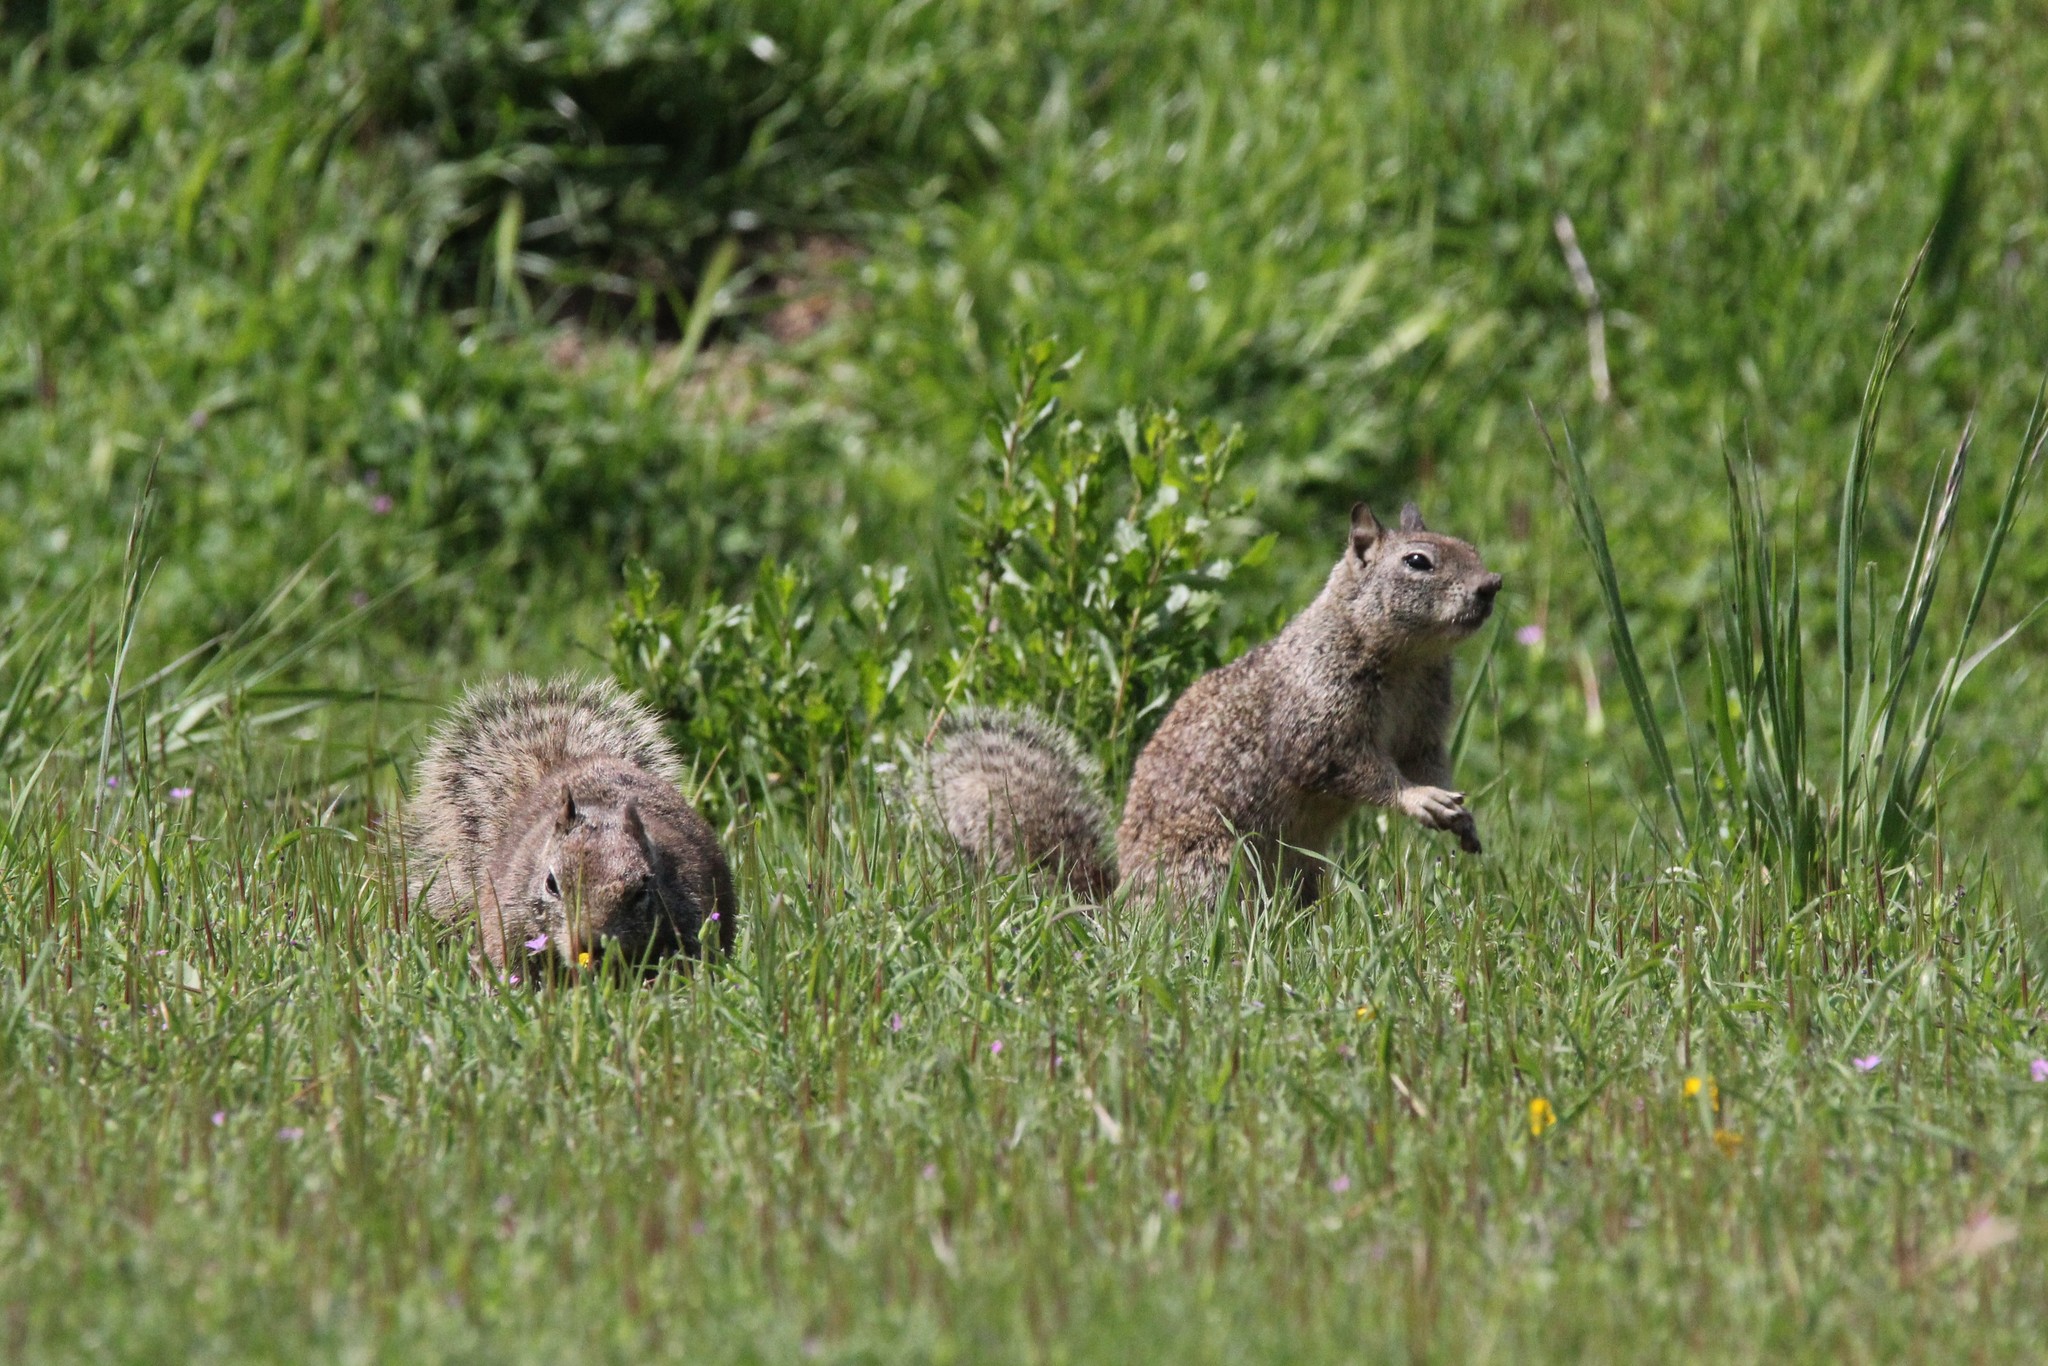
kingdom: Animalia
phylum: Chordata
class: Mammalia
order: Rodentia
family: Sciuridae
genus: Otospermophilus
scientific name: Otospermophilus beecheyi
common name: California ground squirrel
